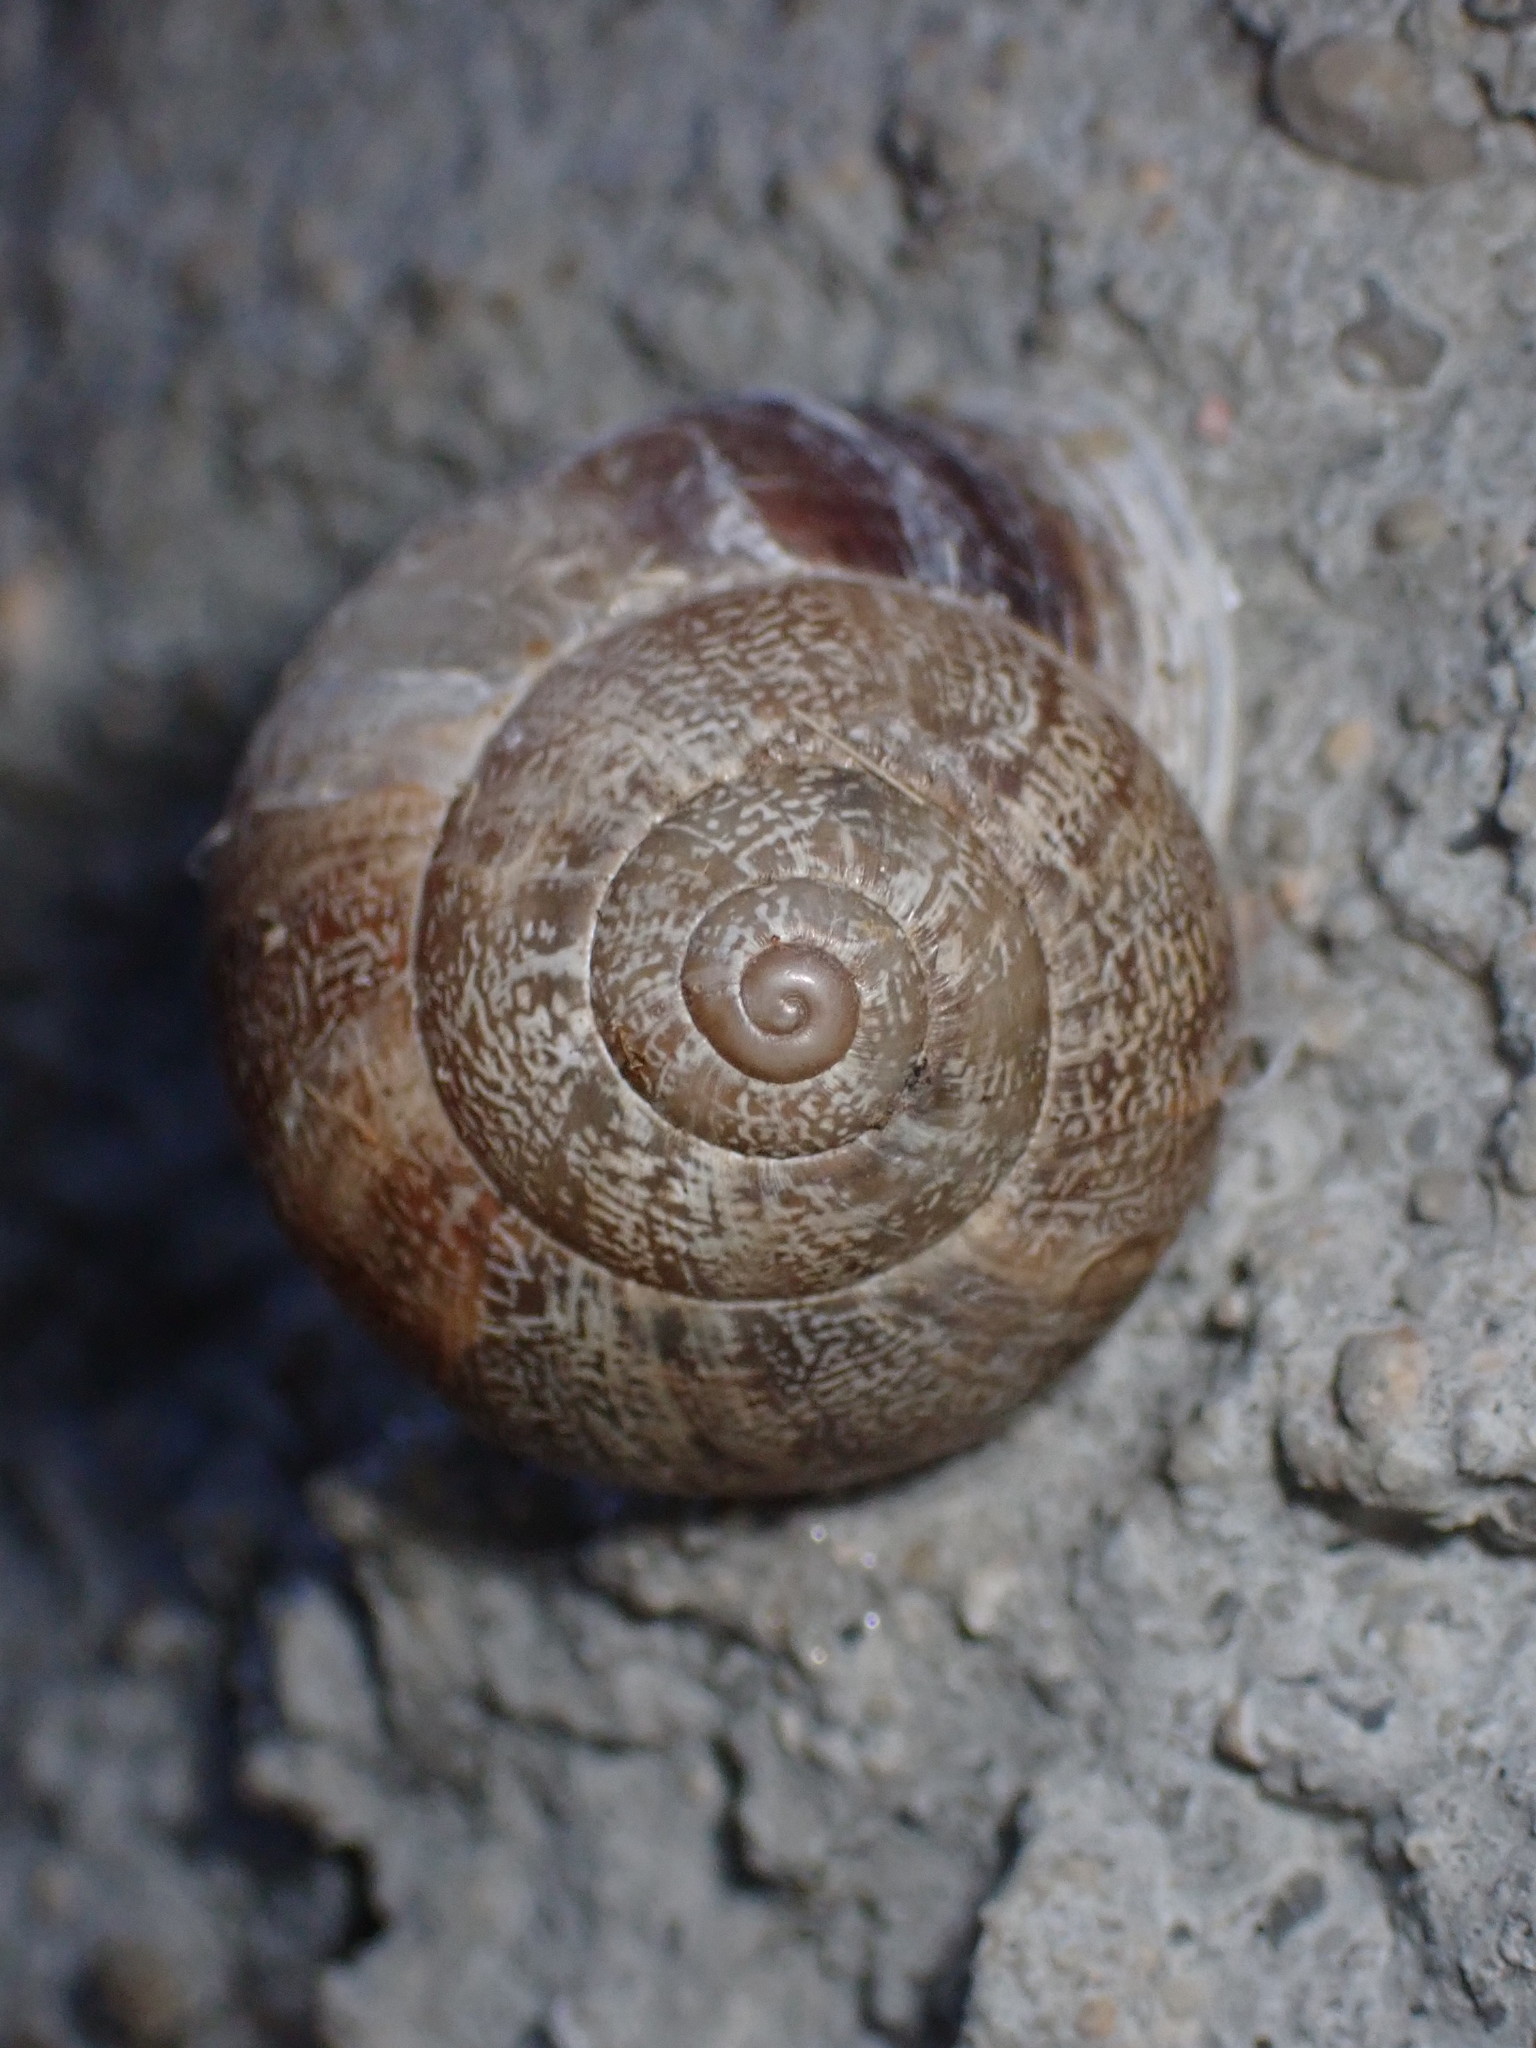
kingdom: Animalia
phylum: Mollusca
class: Gastropoda
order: Stylommatophora
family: Helicidae
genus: Eobania
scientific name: Eobania vermiculata
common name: Chocolateband snail
